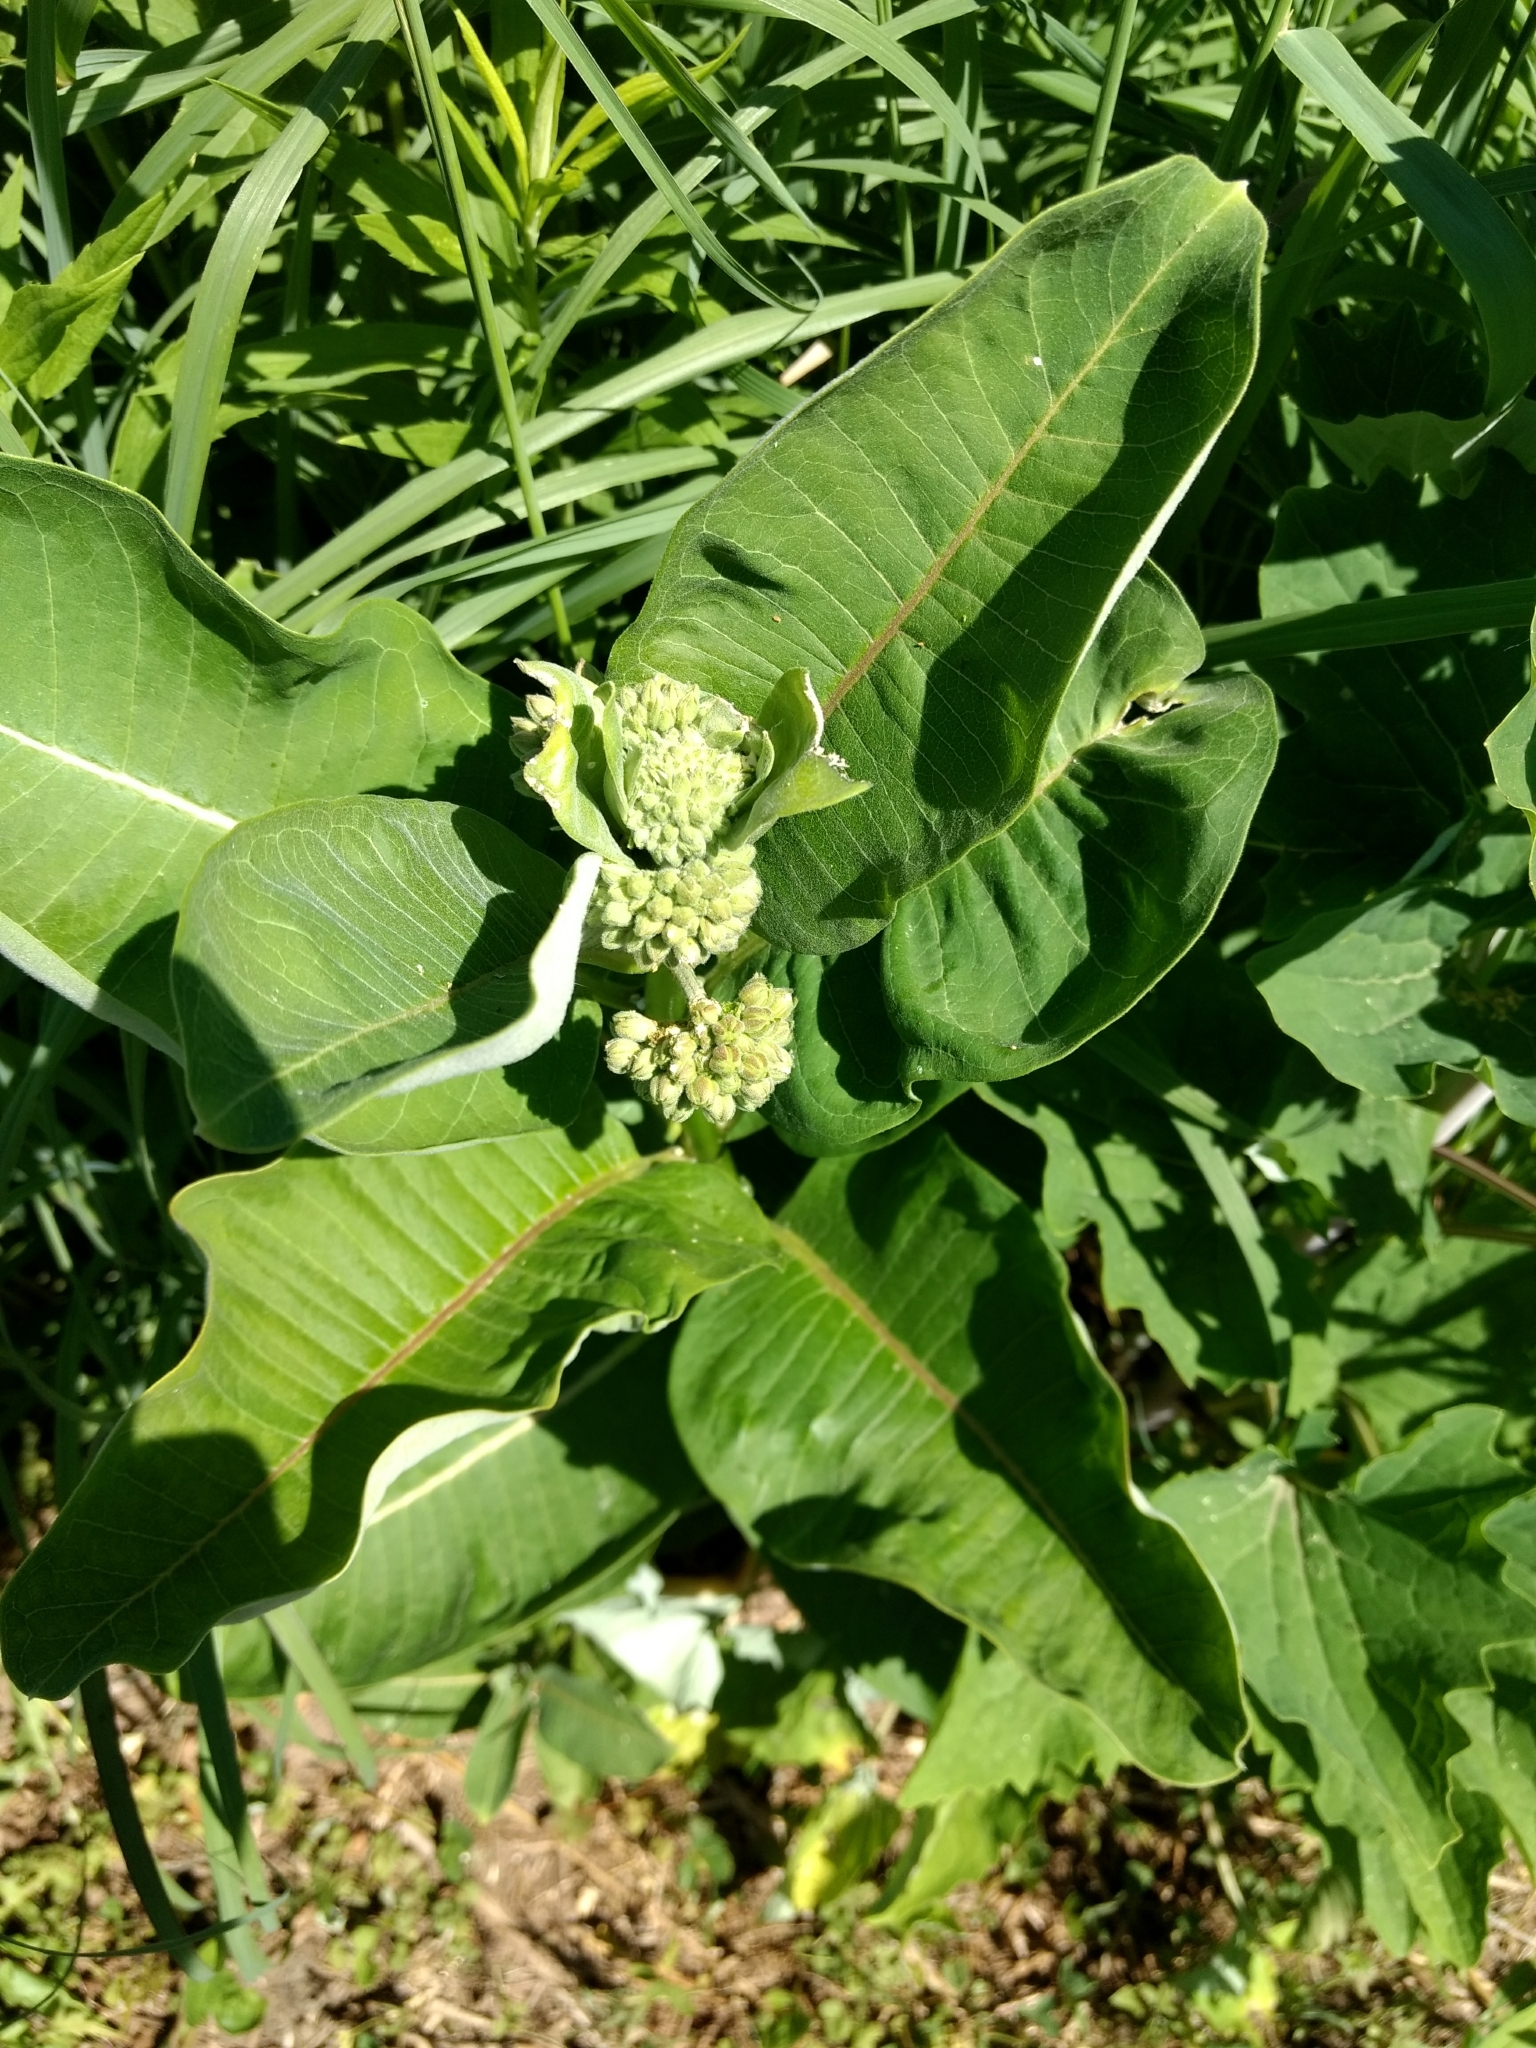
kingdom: Plantae
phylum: Tracheophyta
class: Magnoliopsida
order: Gentianales
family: Apocynaceae
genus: Asclepias
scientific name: Asclepias syriaca
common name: Common milkweed
